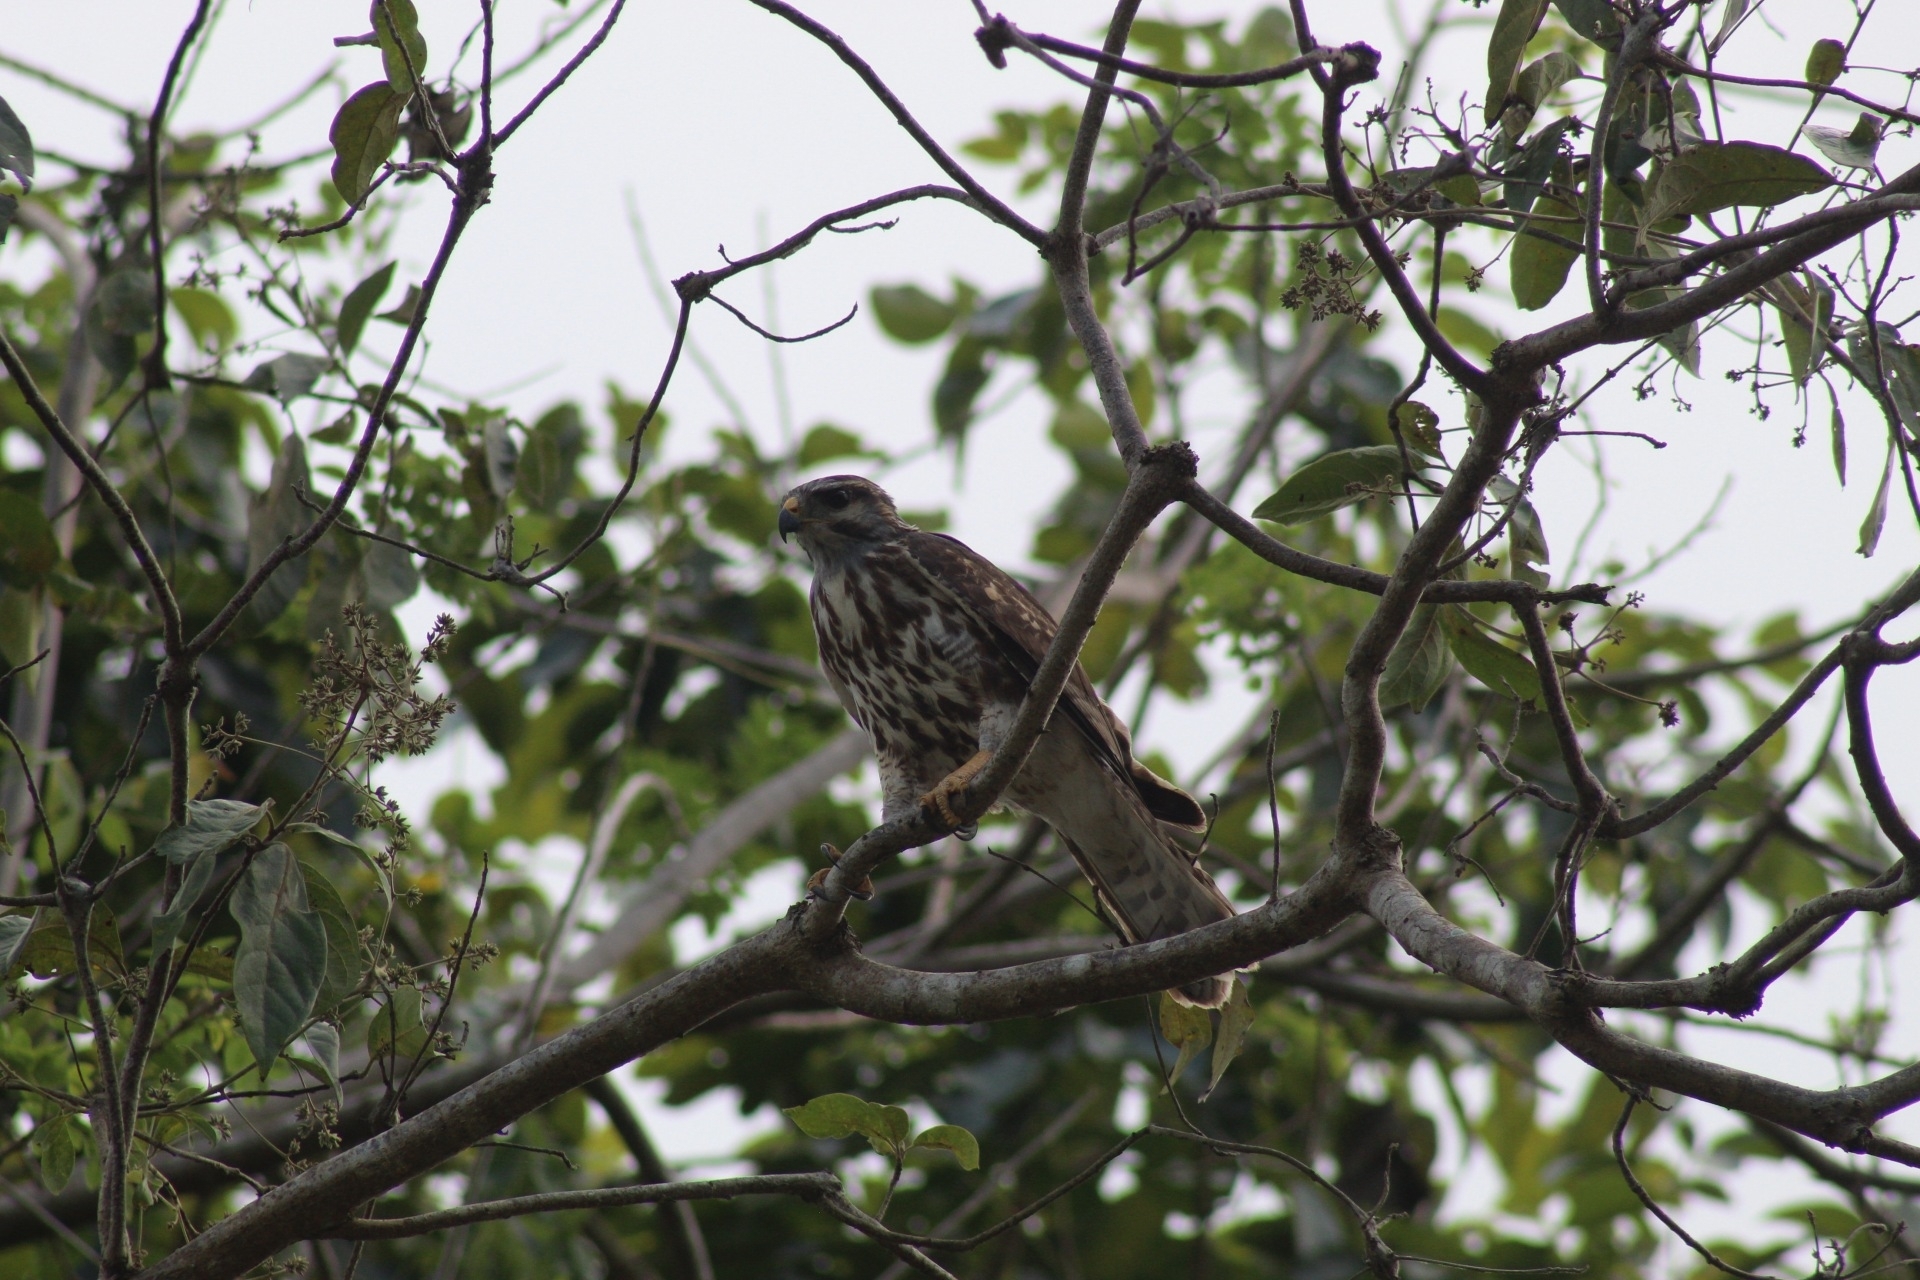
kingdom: Animalia
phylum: Chordata
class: Aves
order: Accipitriformes
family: Accipitridae
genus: Buteo
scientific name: Buteo nitidus
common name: Grey-lined hawk
